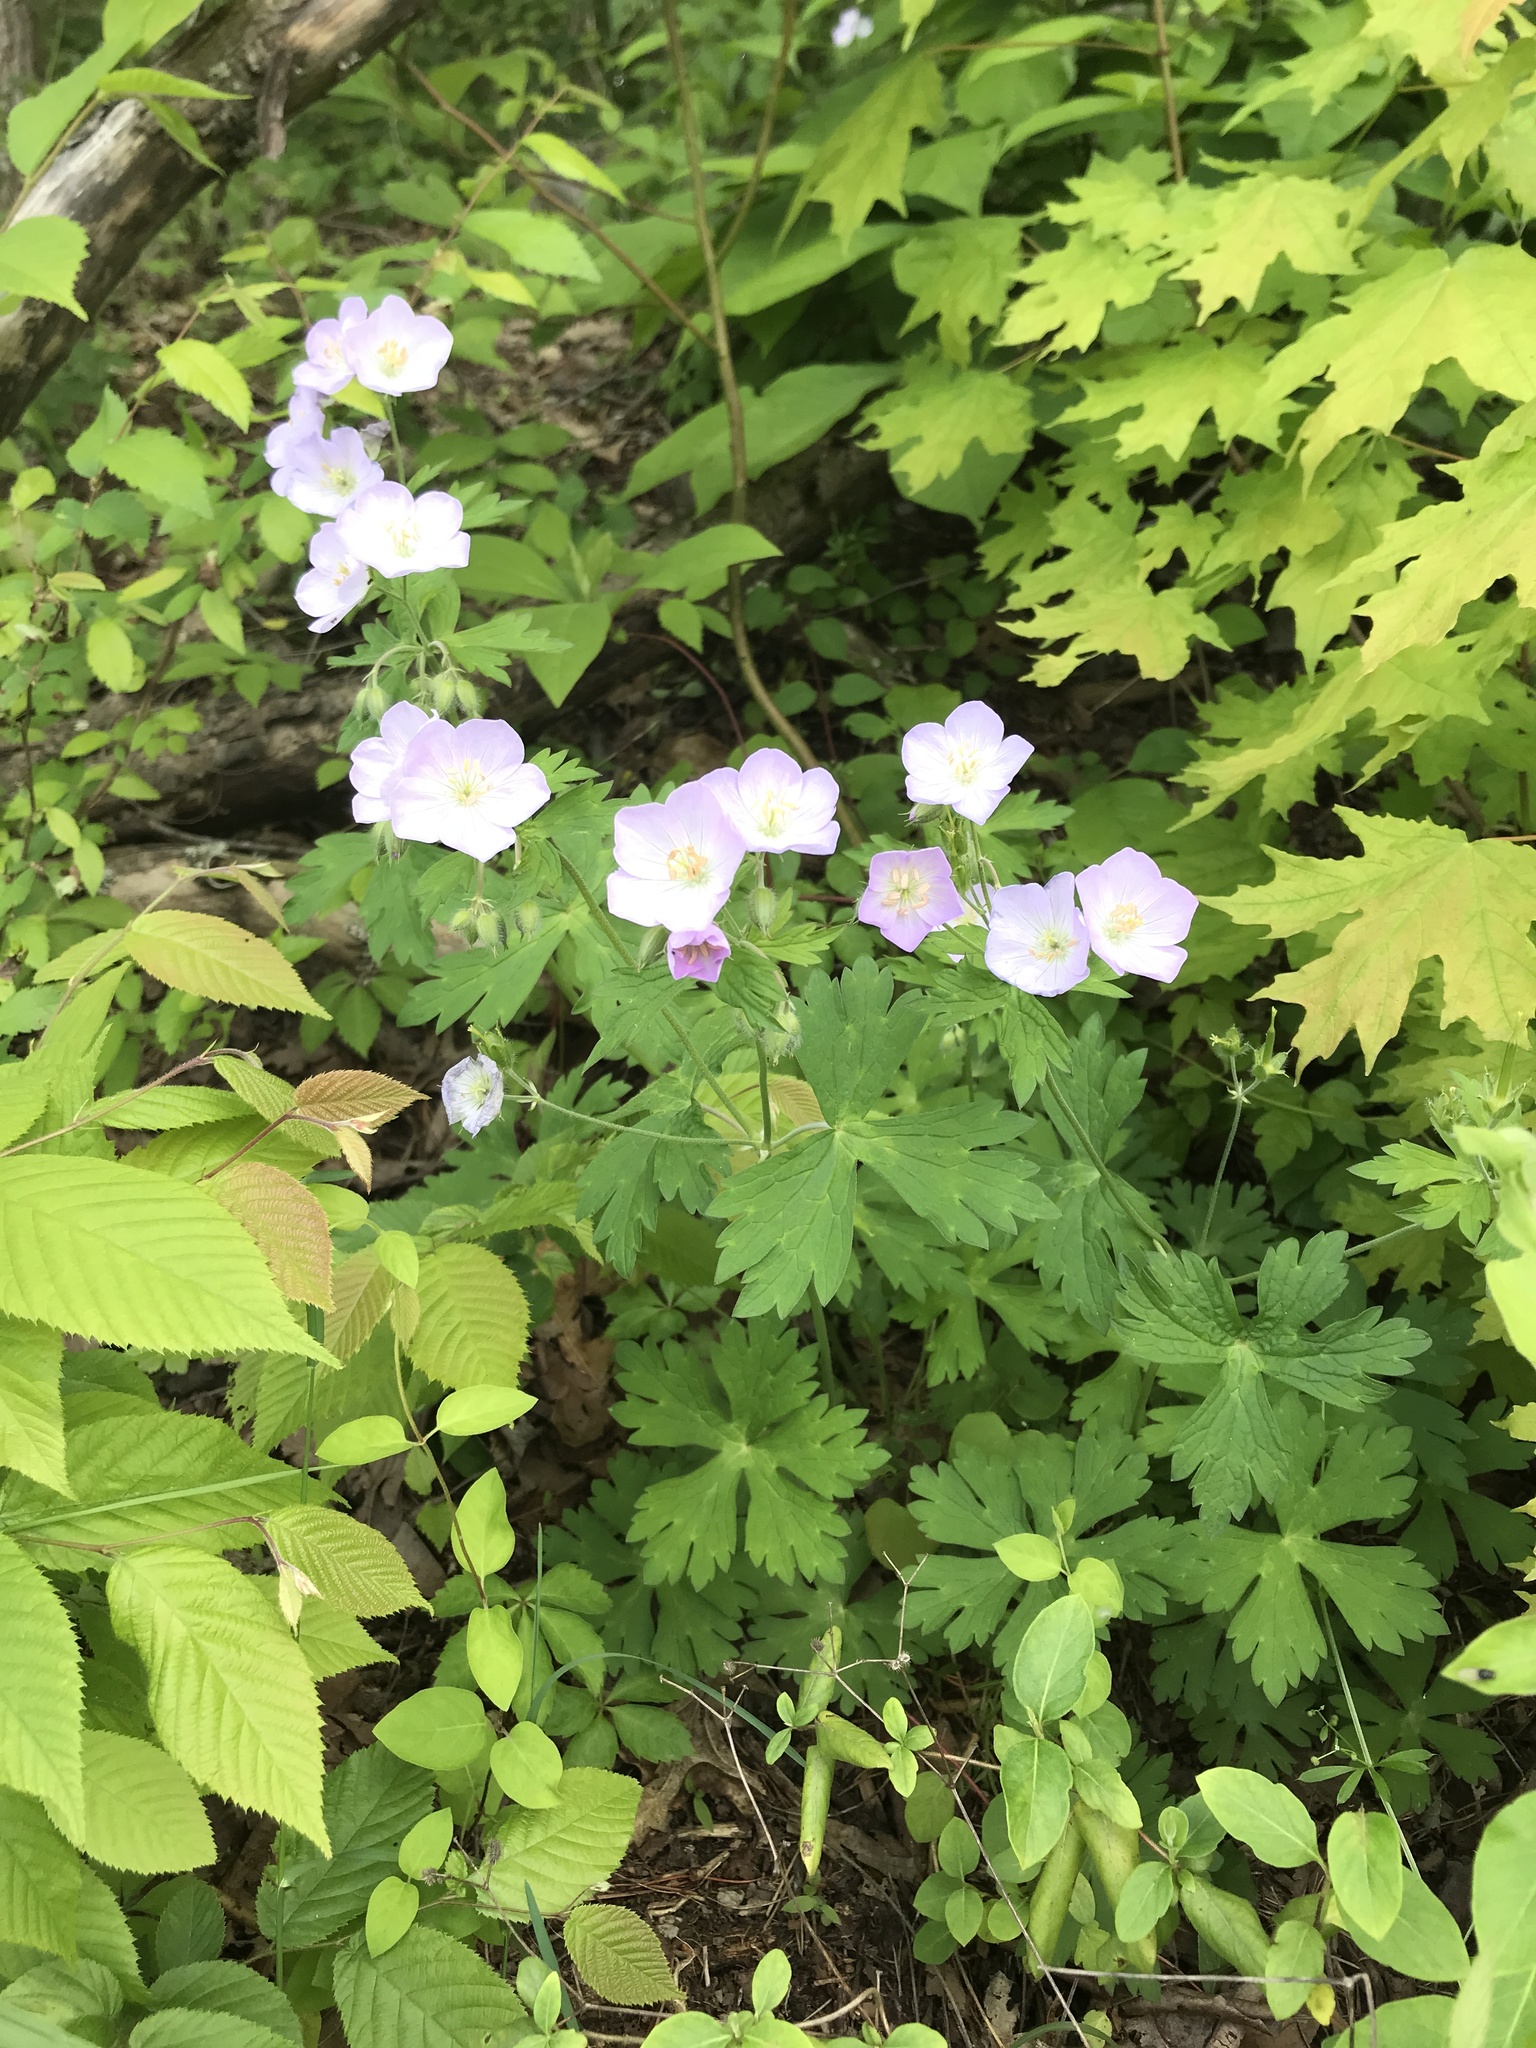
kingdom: Plantae
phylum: Tracheophyta
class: Magnoliopsida
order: Geraniales
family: Geraniaceae
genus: Geranium
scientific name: Geranium maculatum
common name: Spotted geranium
